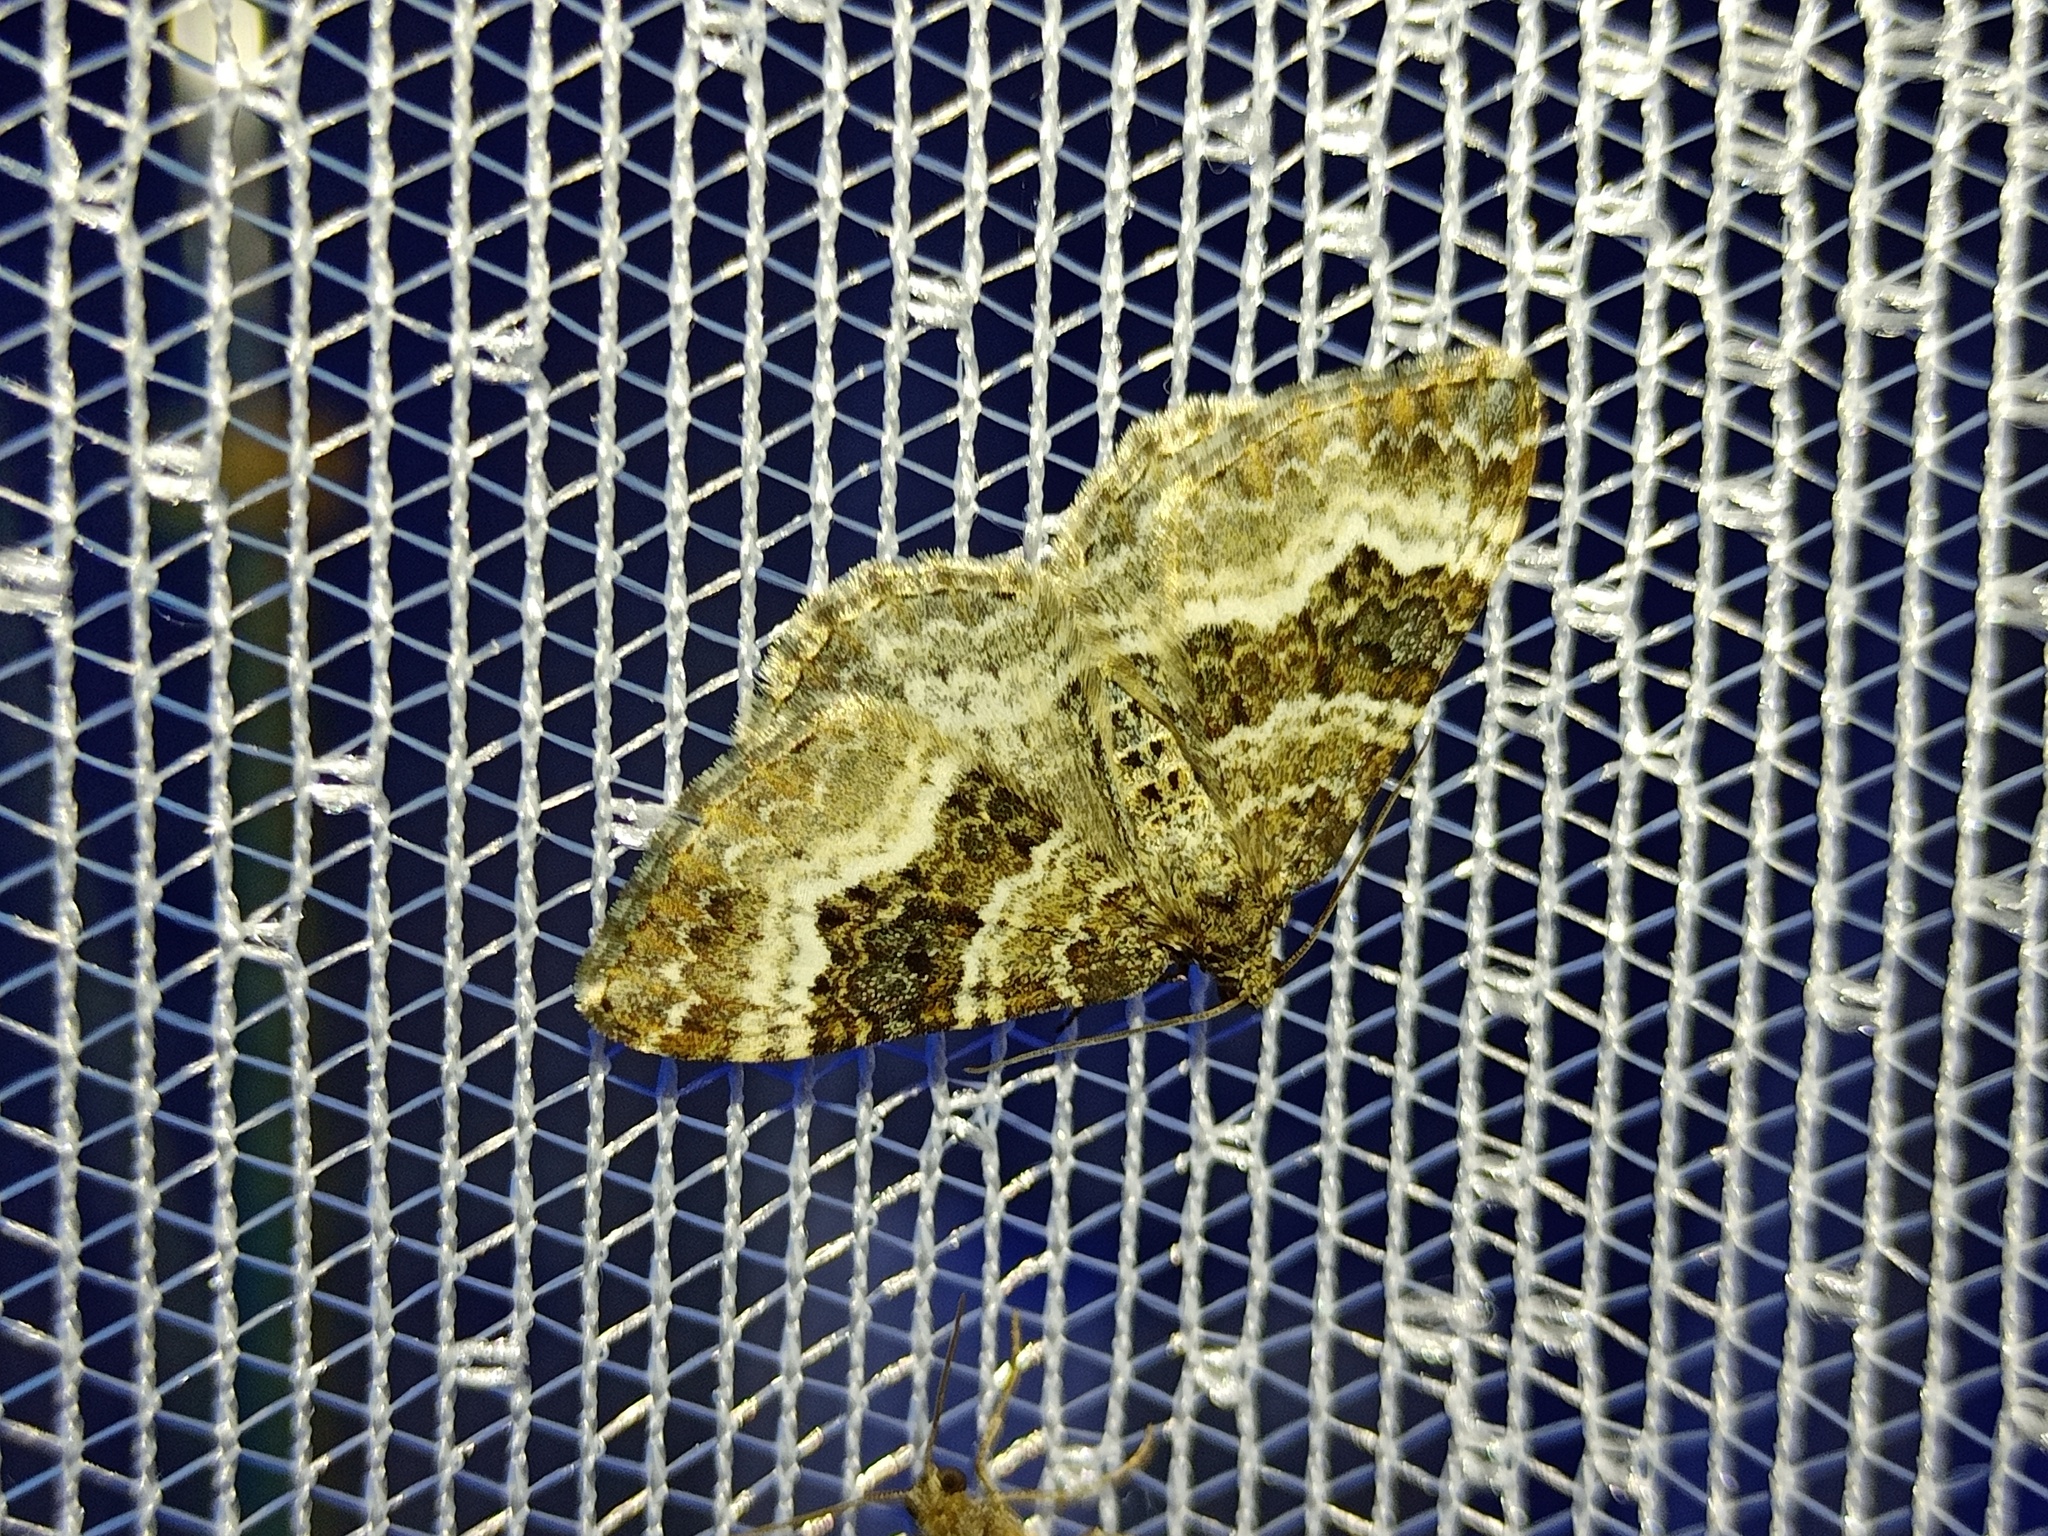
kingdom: Animalia
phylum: Arthropoda
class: Insecta
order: Lepidoptera
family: Geometridae
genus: Epirrhoe
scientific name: Epirrhoe alternata
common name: Common carpet
